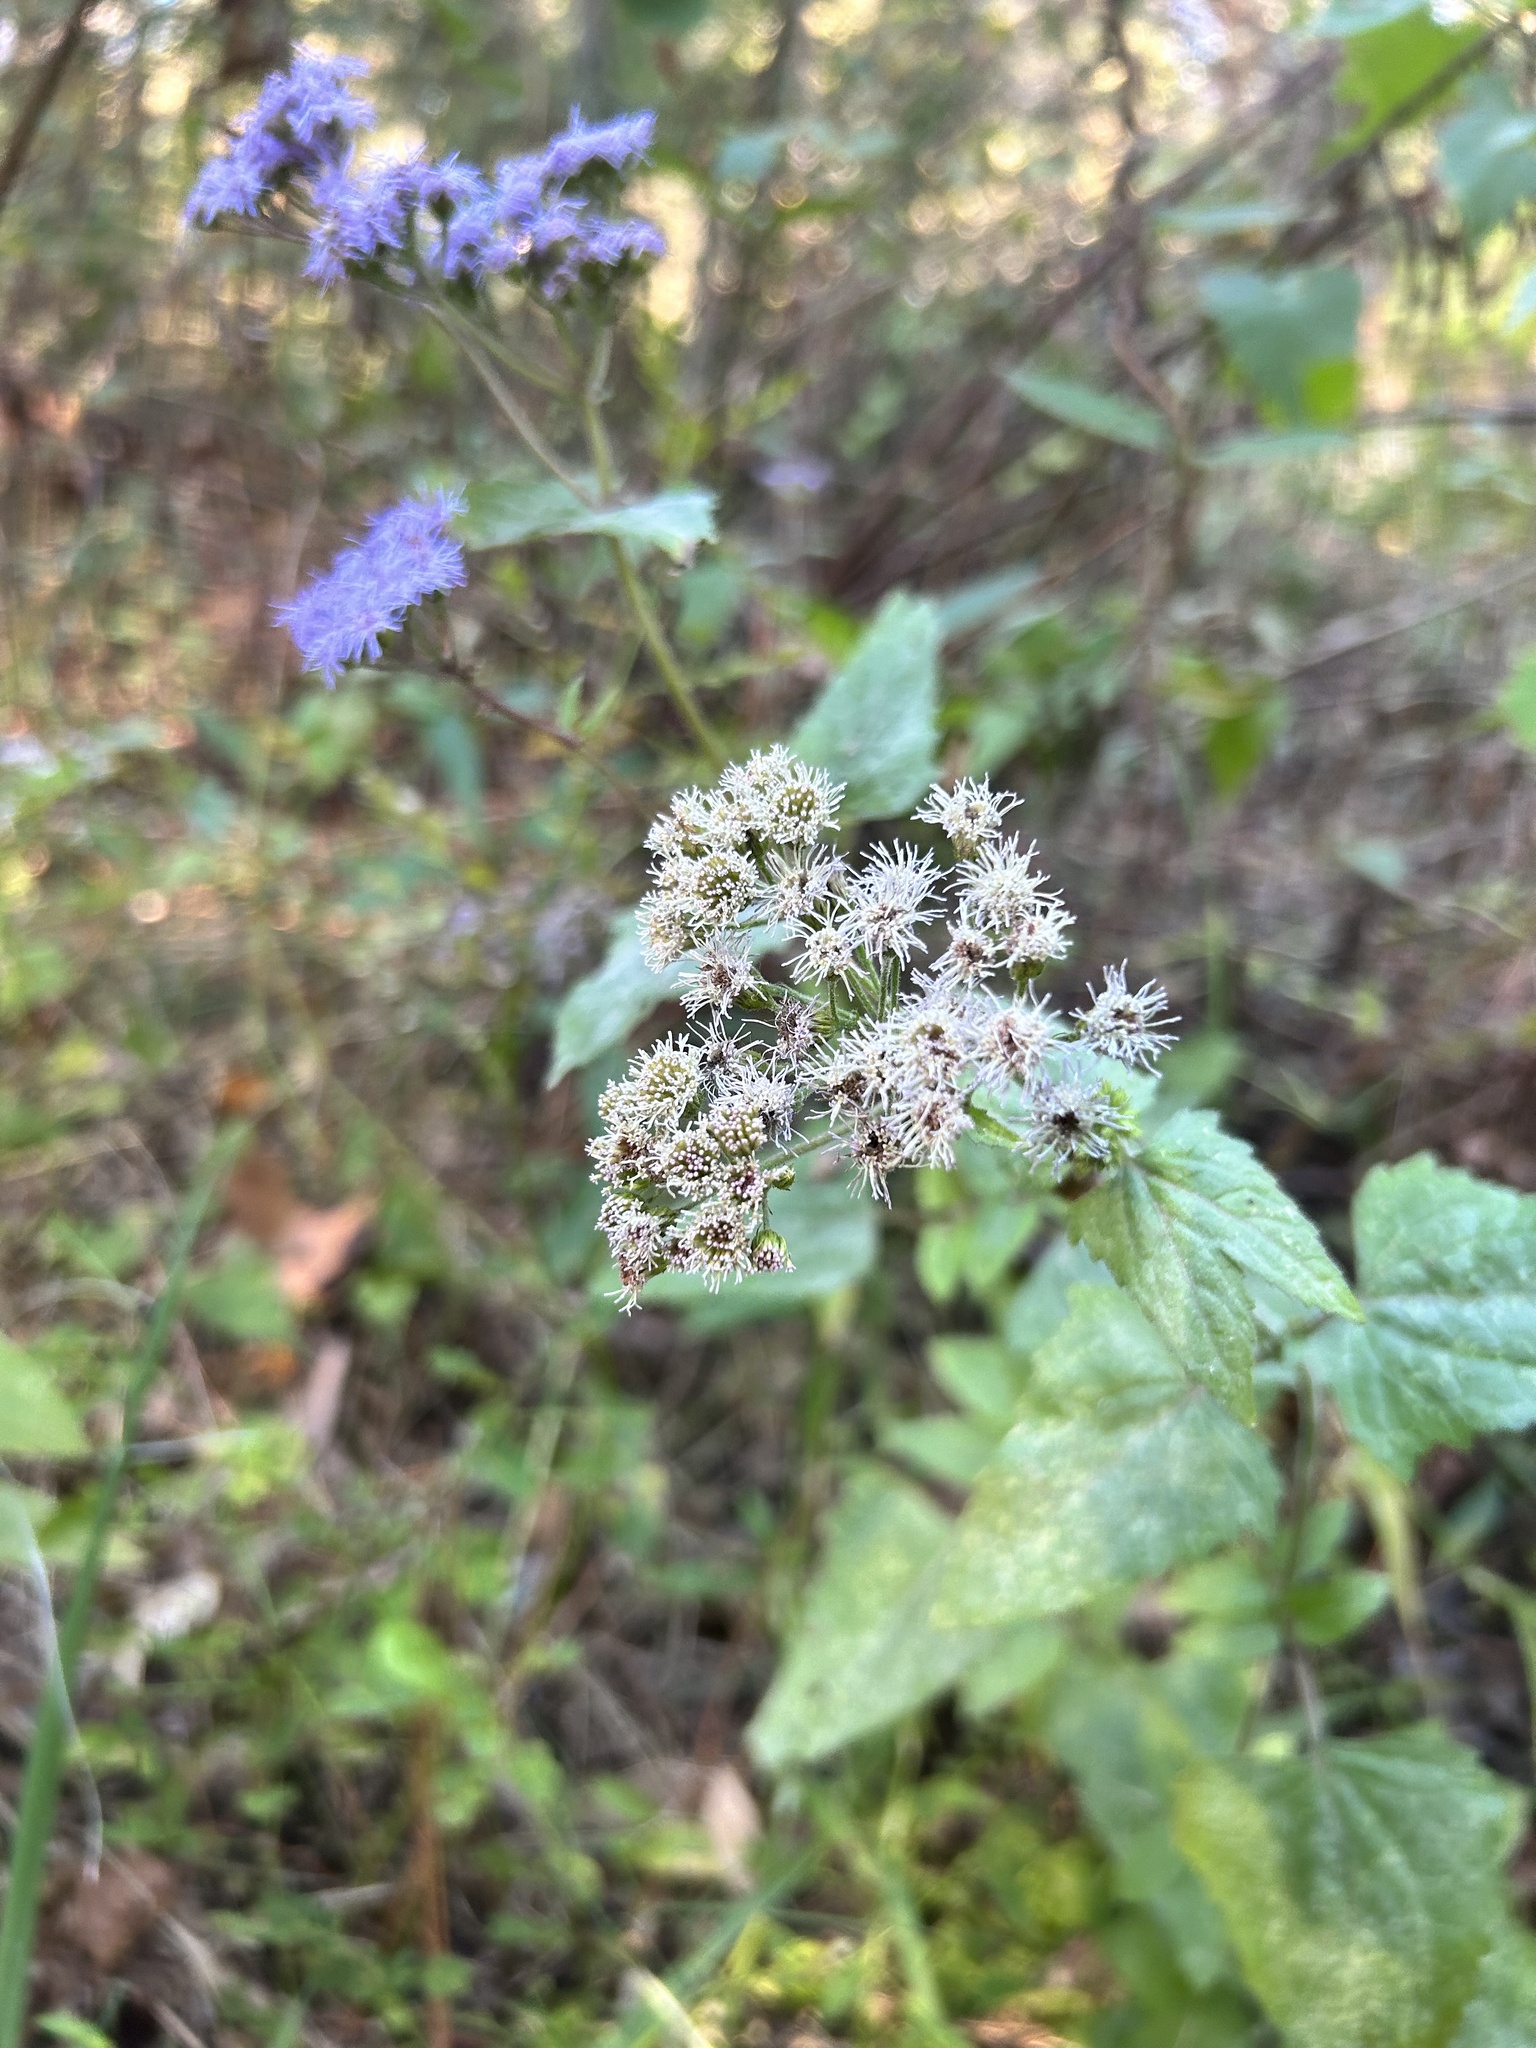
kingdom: Plantae
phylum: Tracheophyta
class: Magnoliopsida
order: Asterales
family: Asteraceae
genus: Conoclinium
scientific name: Conoclinium coelestinum
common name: Blue mistflower
